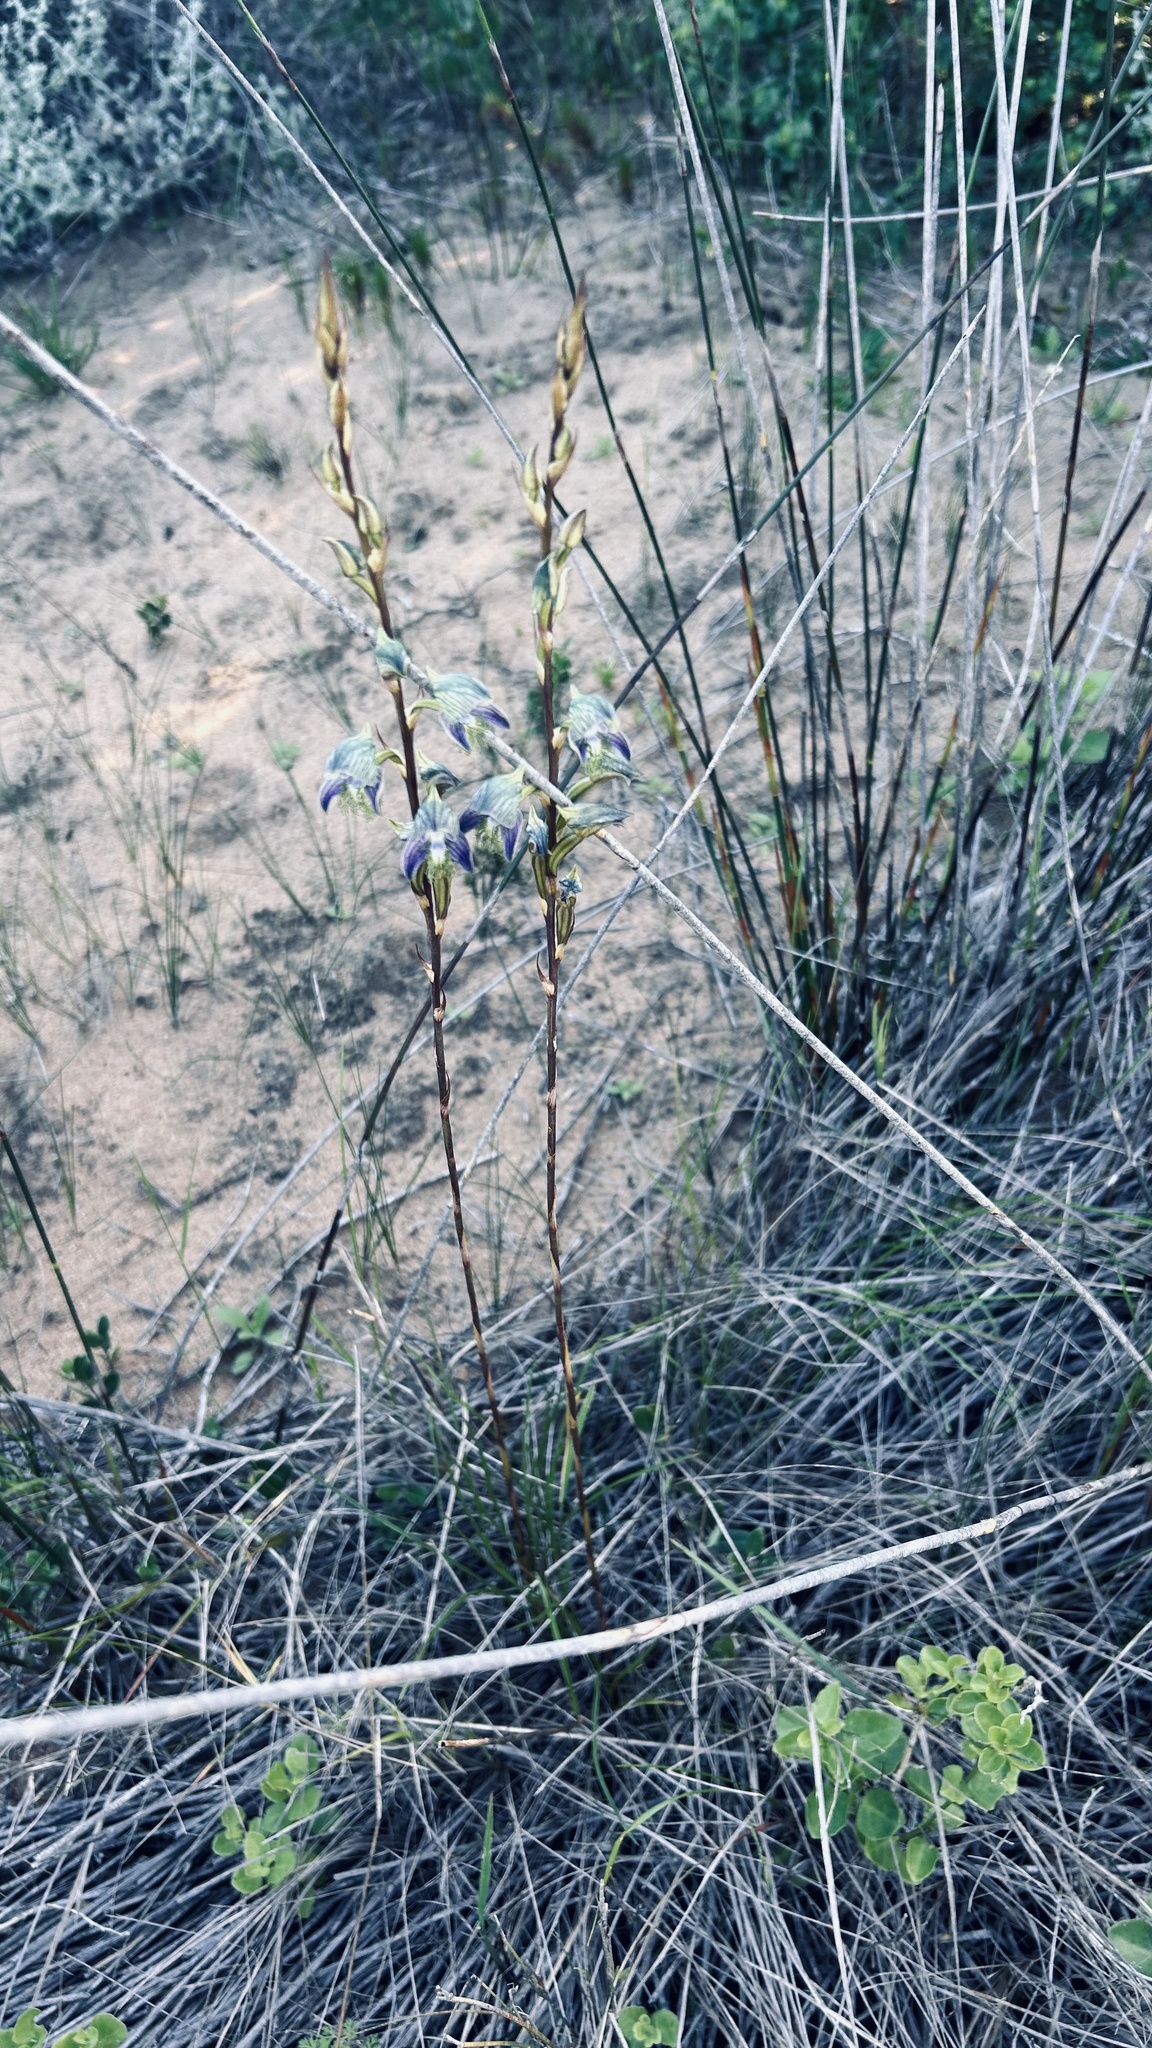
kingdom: Plantae
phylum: Tracheophyta
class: Liliopsida
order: Asparagales
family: Orchidaceae
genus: Disa
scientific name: Disa lugens
